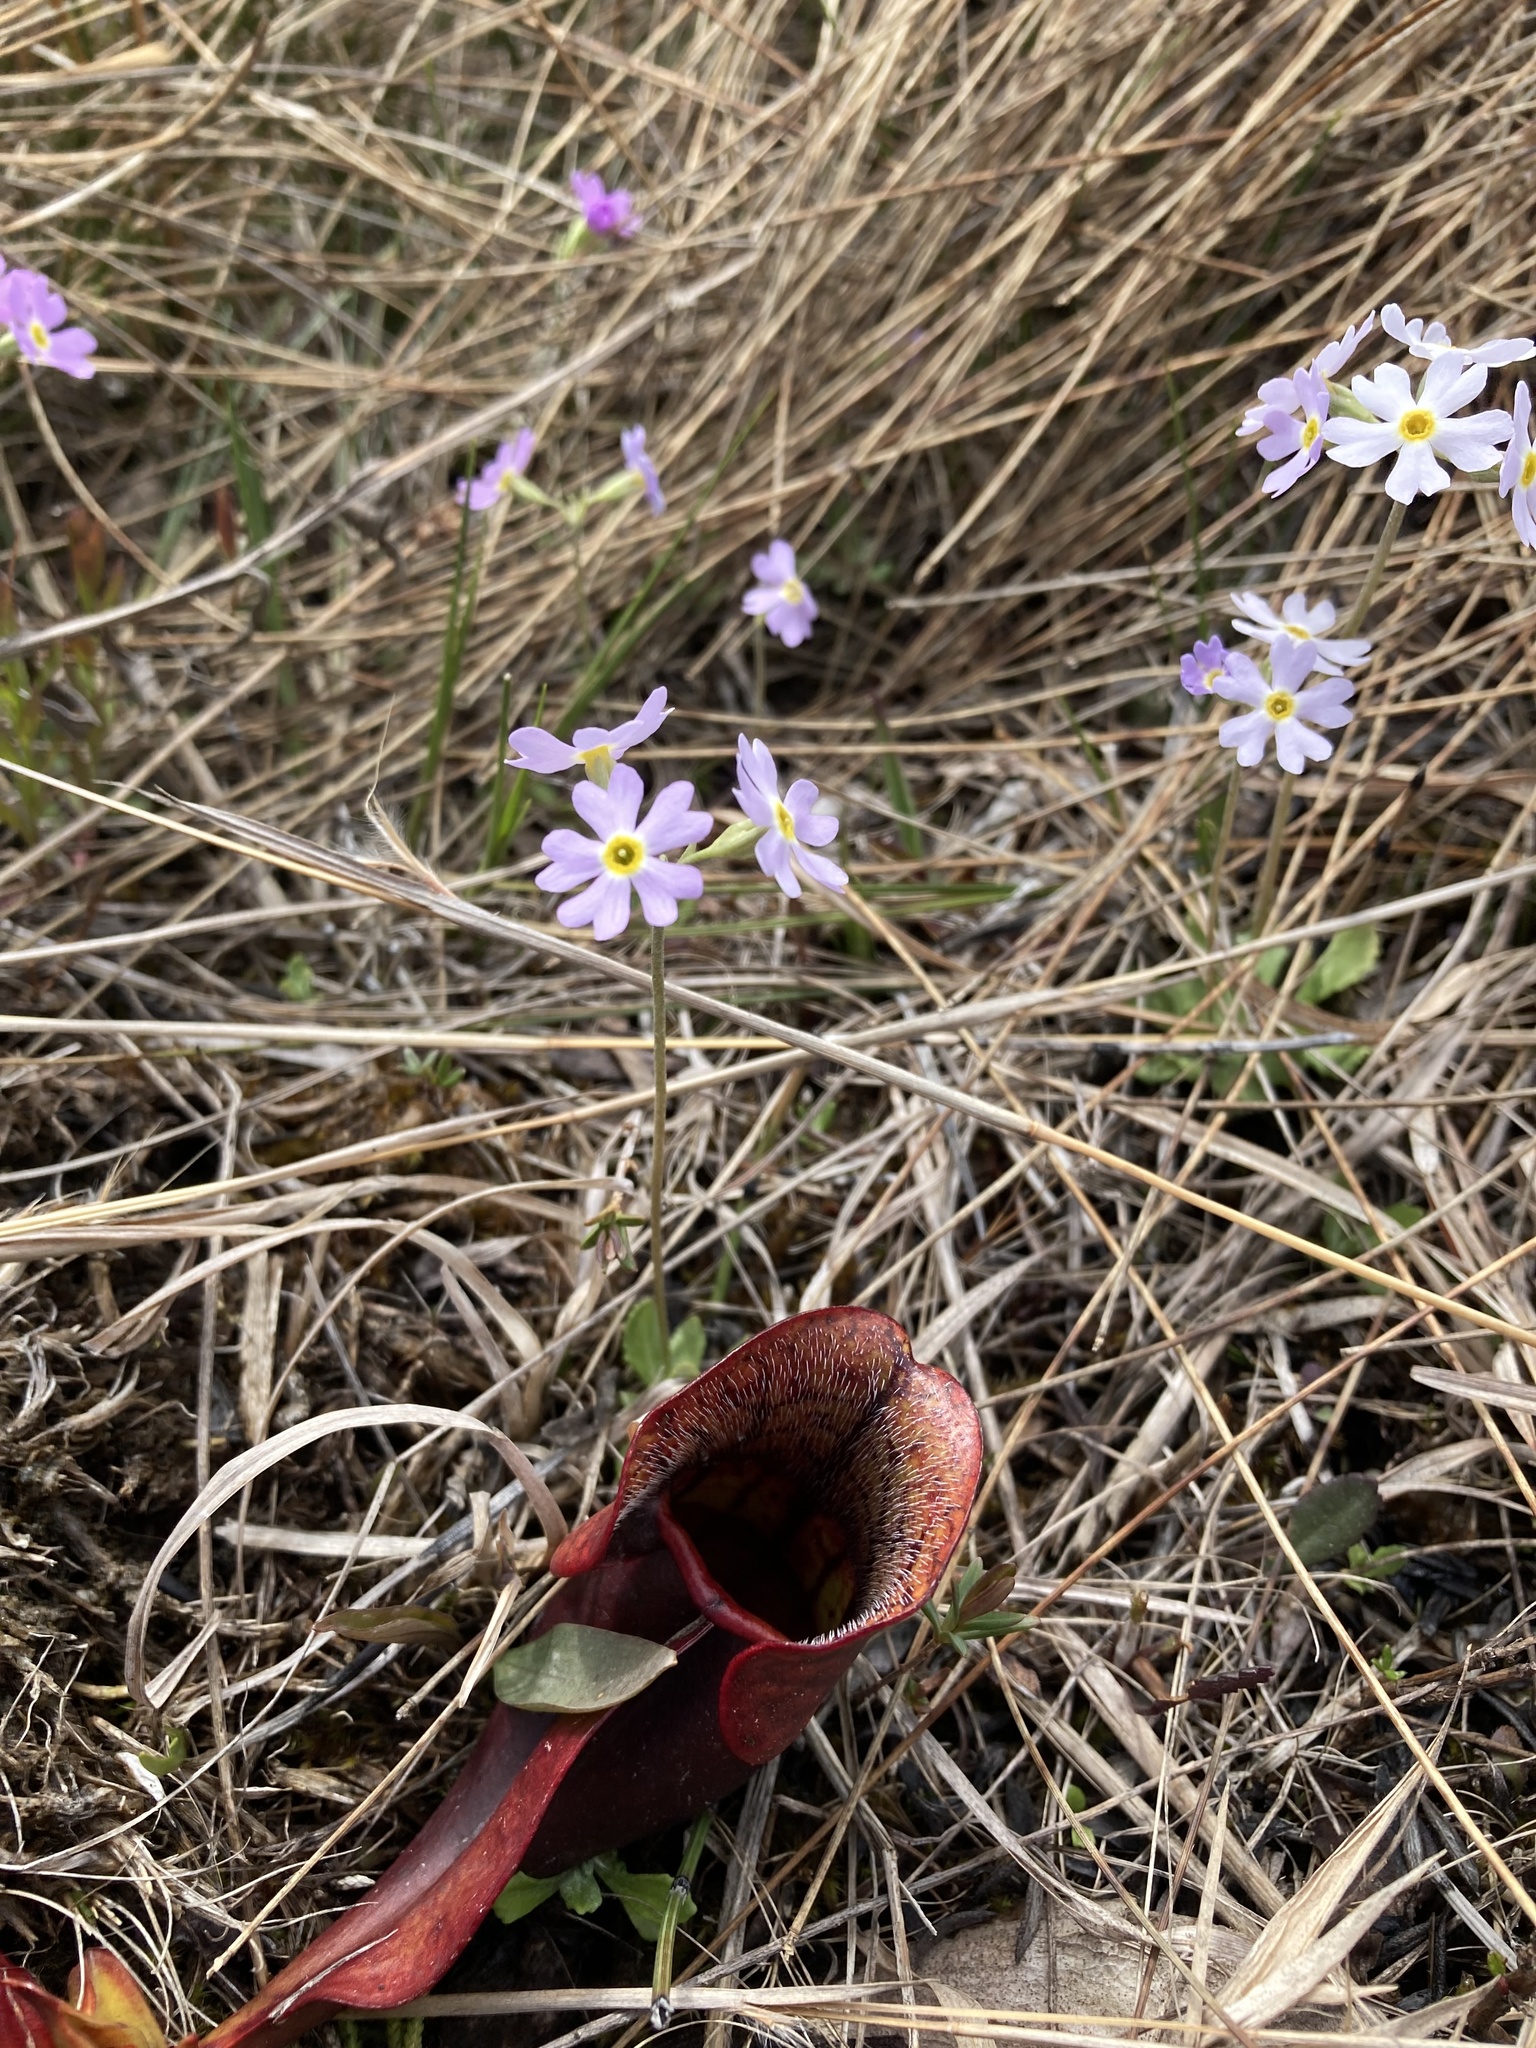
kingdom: Plantae
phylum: Tracheophyta
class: Magnoliopsida
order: Ericales
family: Primulaceae
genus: Primula
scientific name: Primula mistassinica
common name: Bird's-eye primrose
